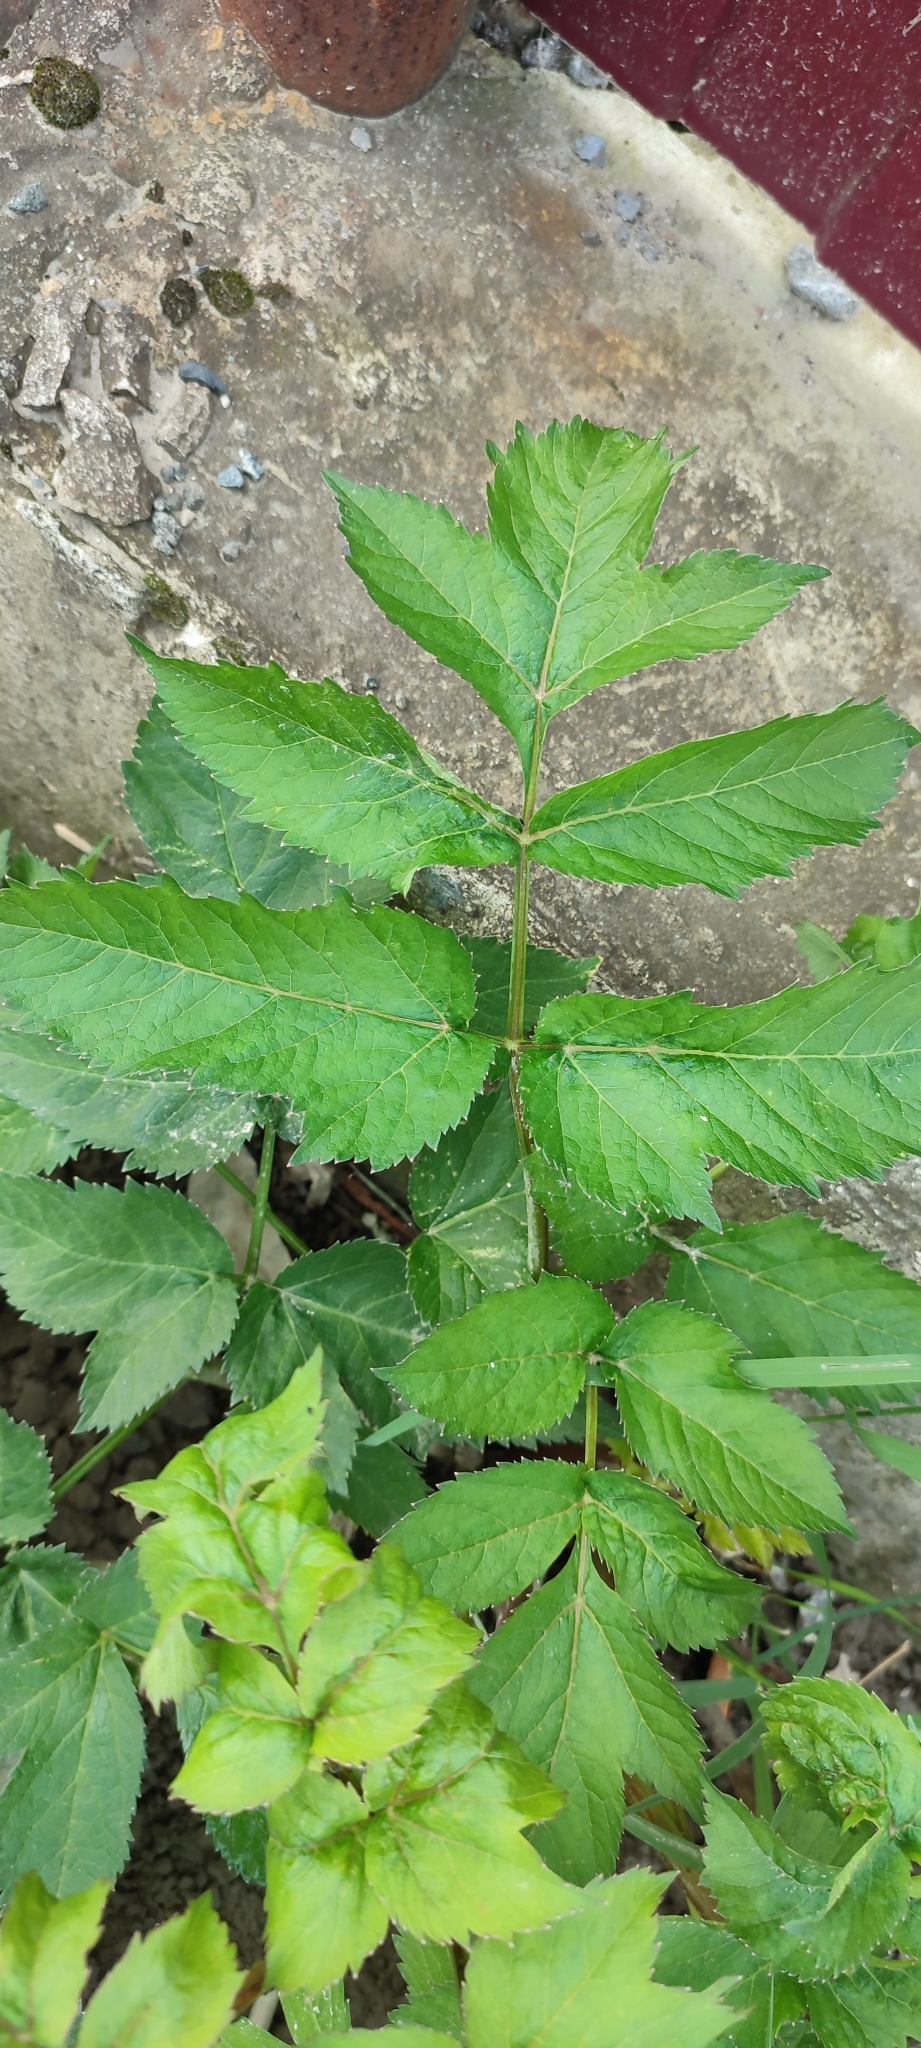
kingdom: Plantae
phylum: Tracheophyta
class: Magnoliopsida
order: Apiales
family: Apiaceae
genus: Angelica
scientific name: Angelica decurrens
